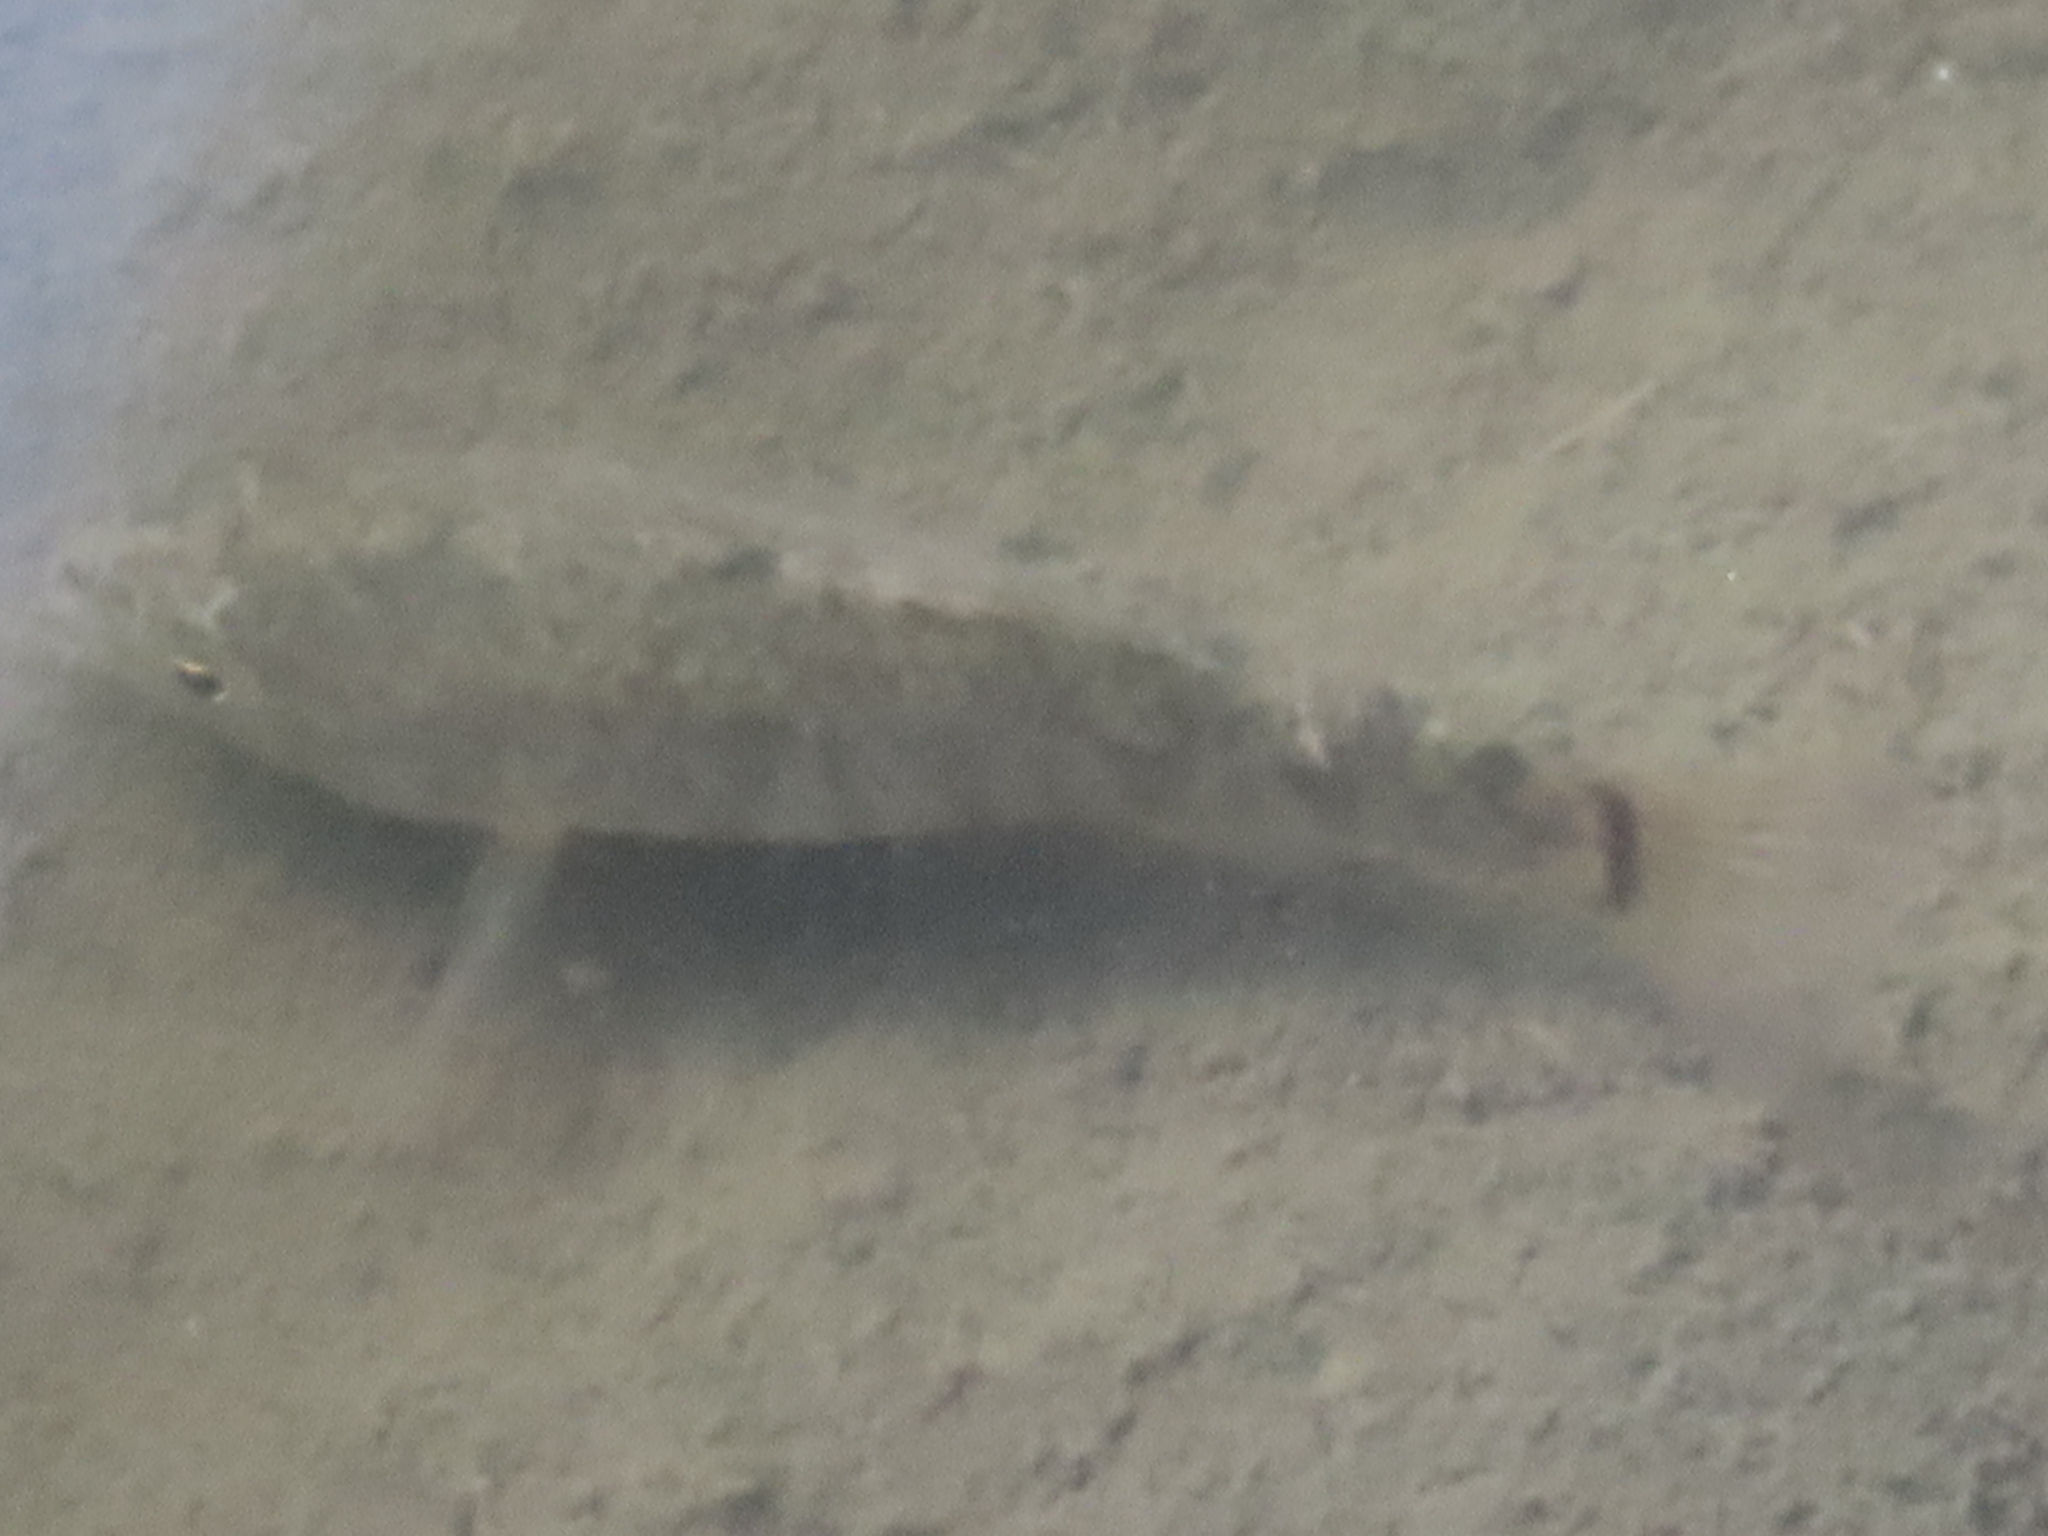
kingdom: Animalia
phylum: Chordata
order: Cyprinodontiformes
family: Cyprinodontidae
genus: Cyprinodon
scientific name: Cyprinodon variegatus
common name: Sheepshead minnow
